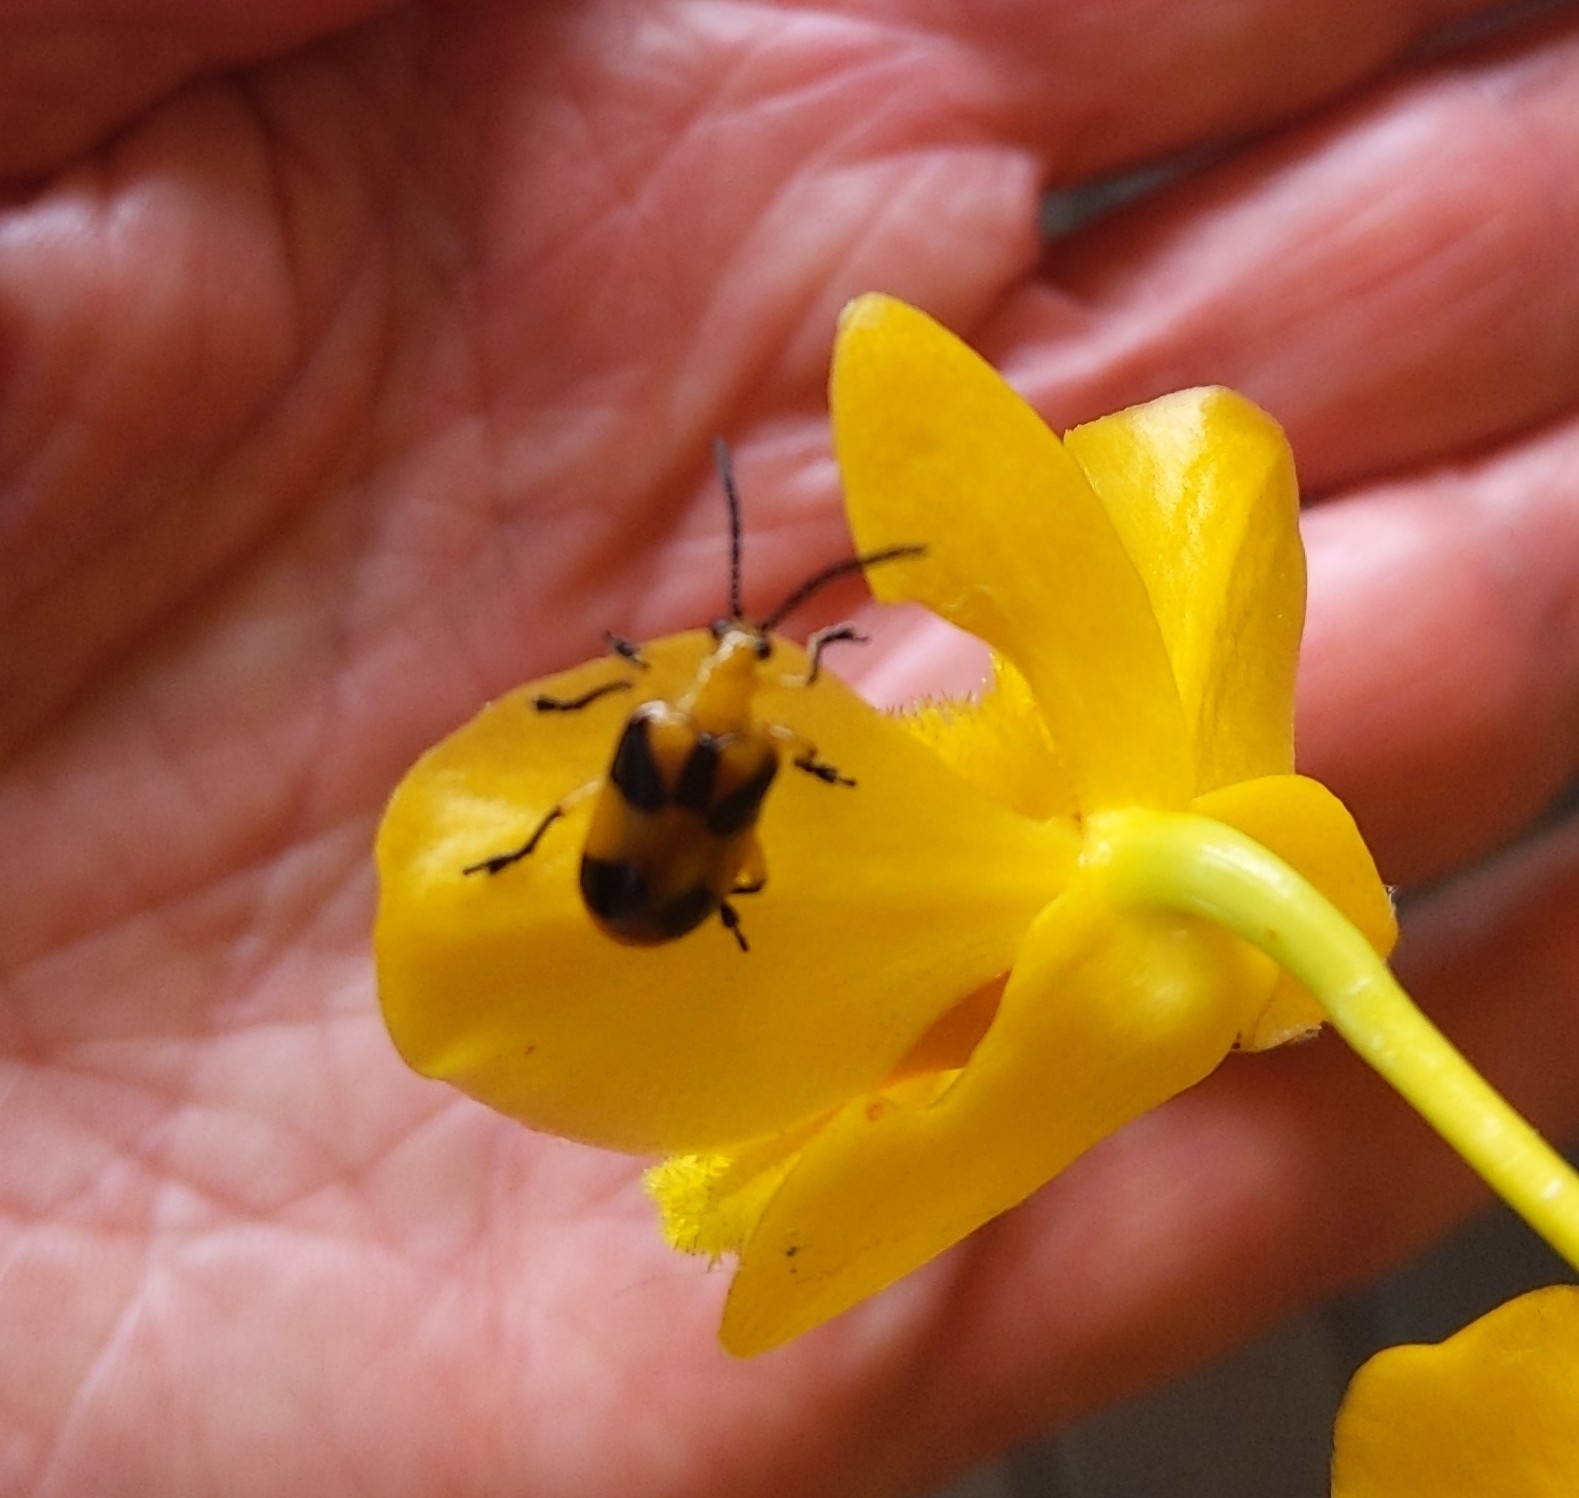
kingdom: Animalia
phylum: Arthropoda
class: Insecta
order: Coleoptera
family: Chrysomelidae
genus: Stethopachys
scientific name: Stethopachys formosa
